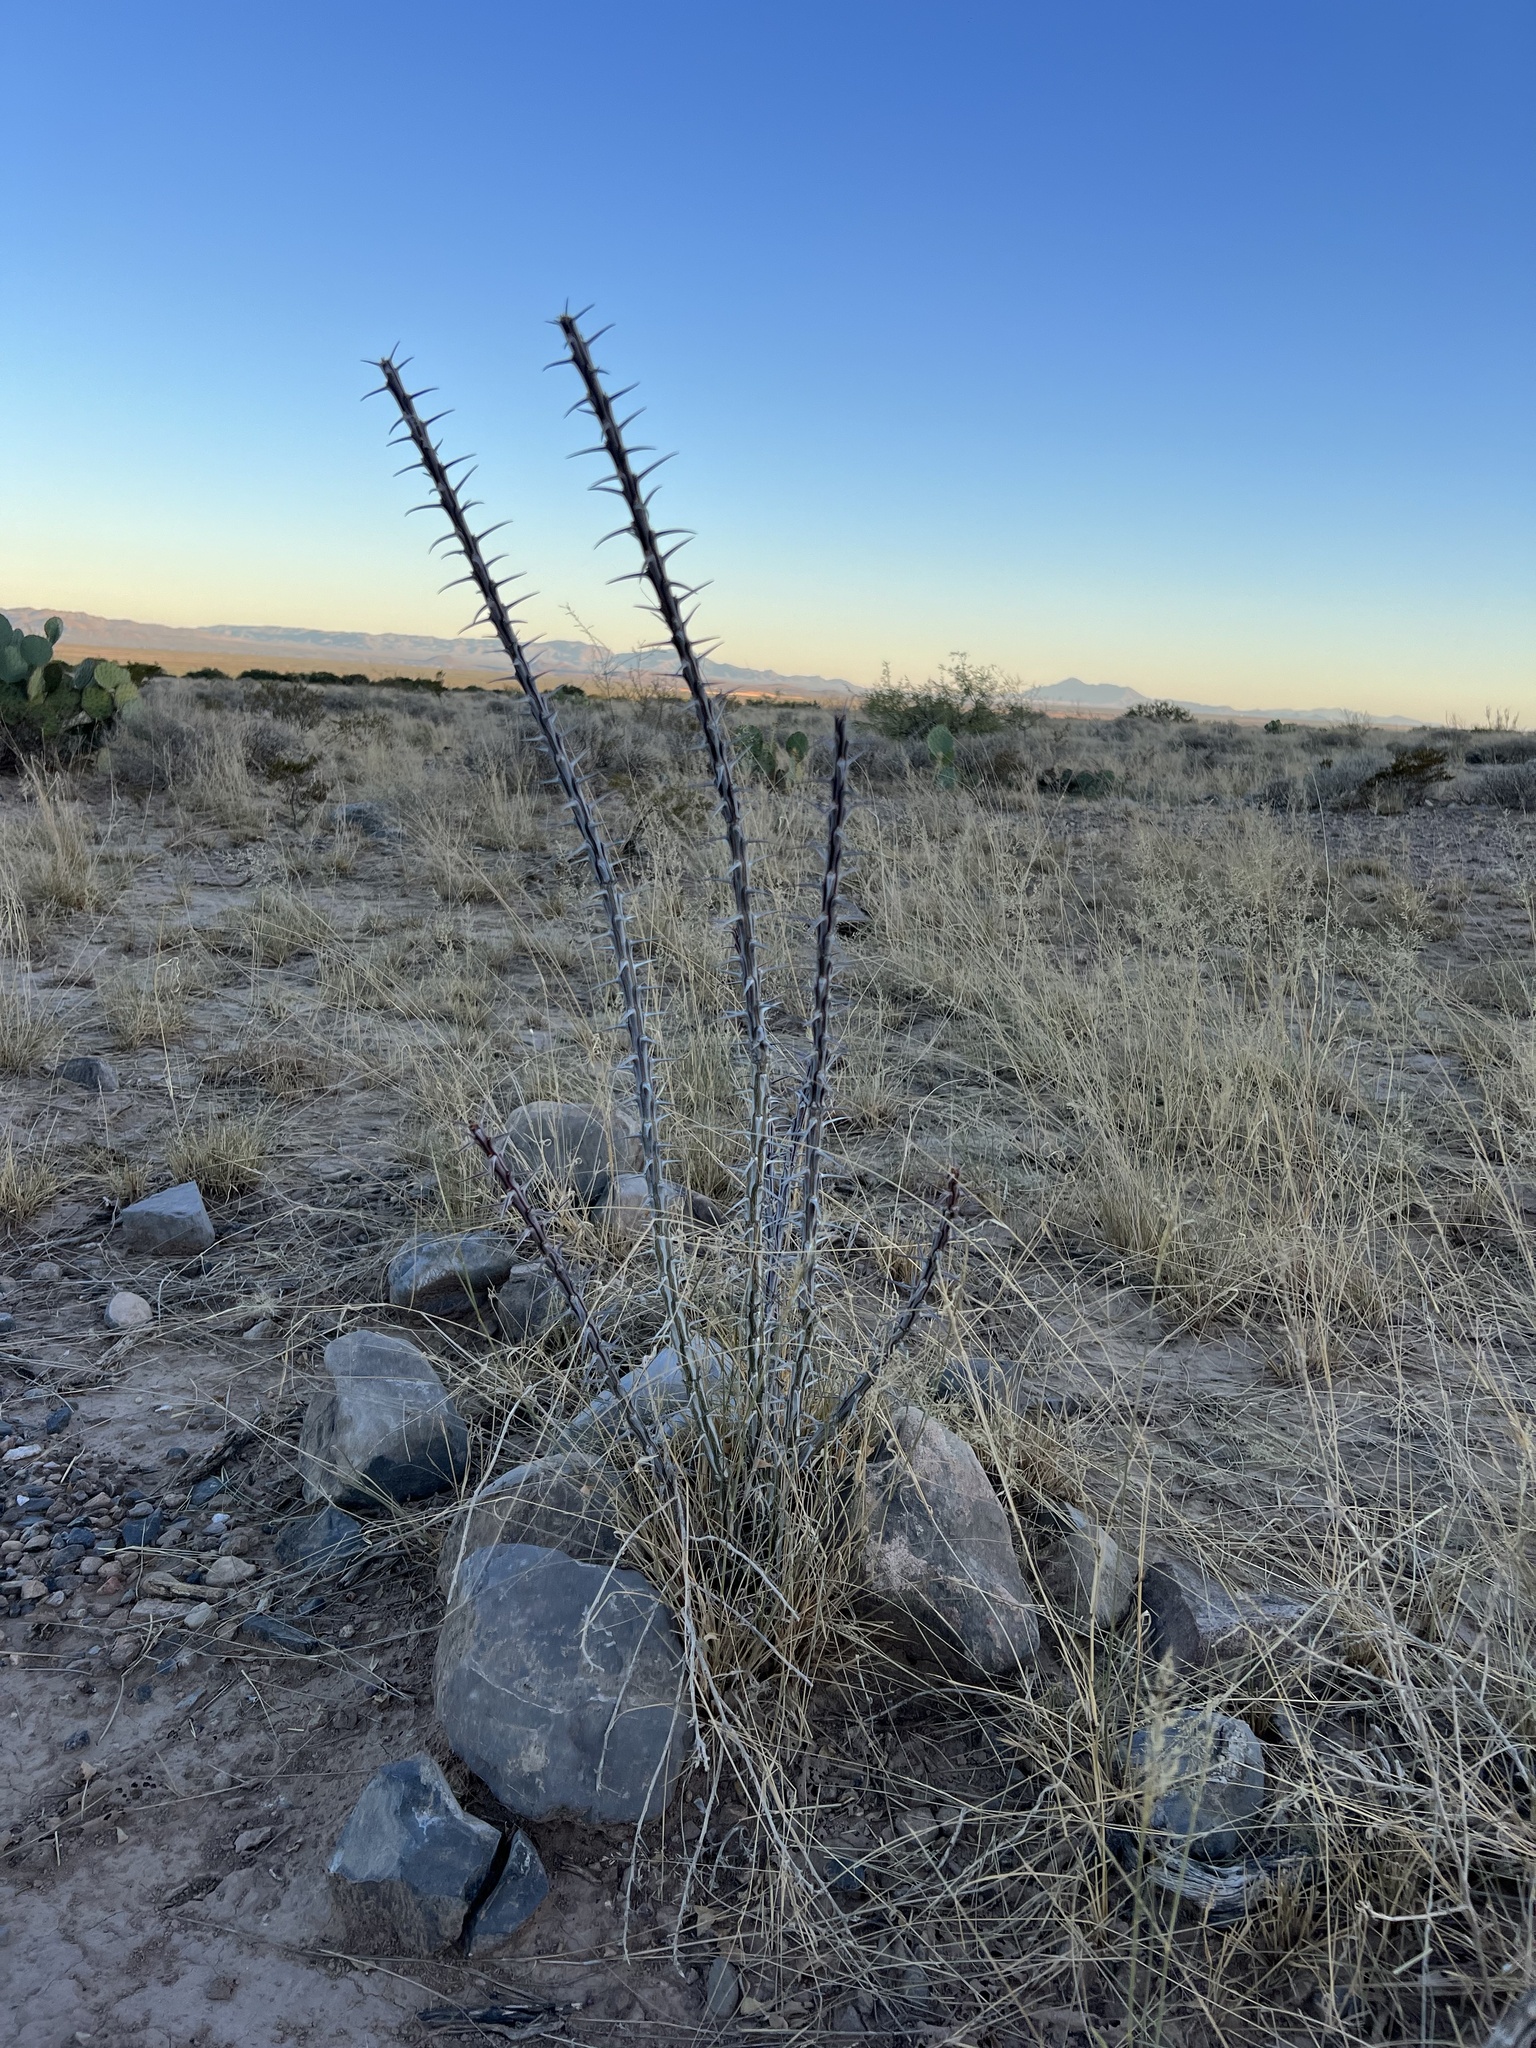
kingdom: Plantae
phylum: Tracheophyta
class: Magnoliopsida
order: Ericales
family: Fouquieriaceae
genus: Fouquieria
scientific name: Fouquieria splendens
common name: Vine-cactus
